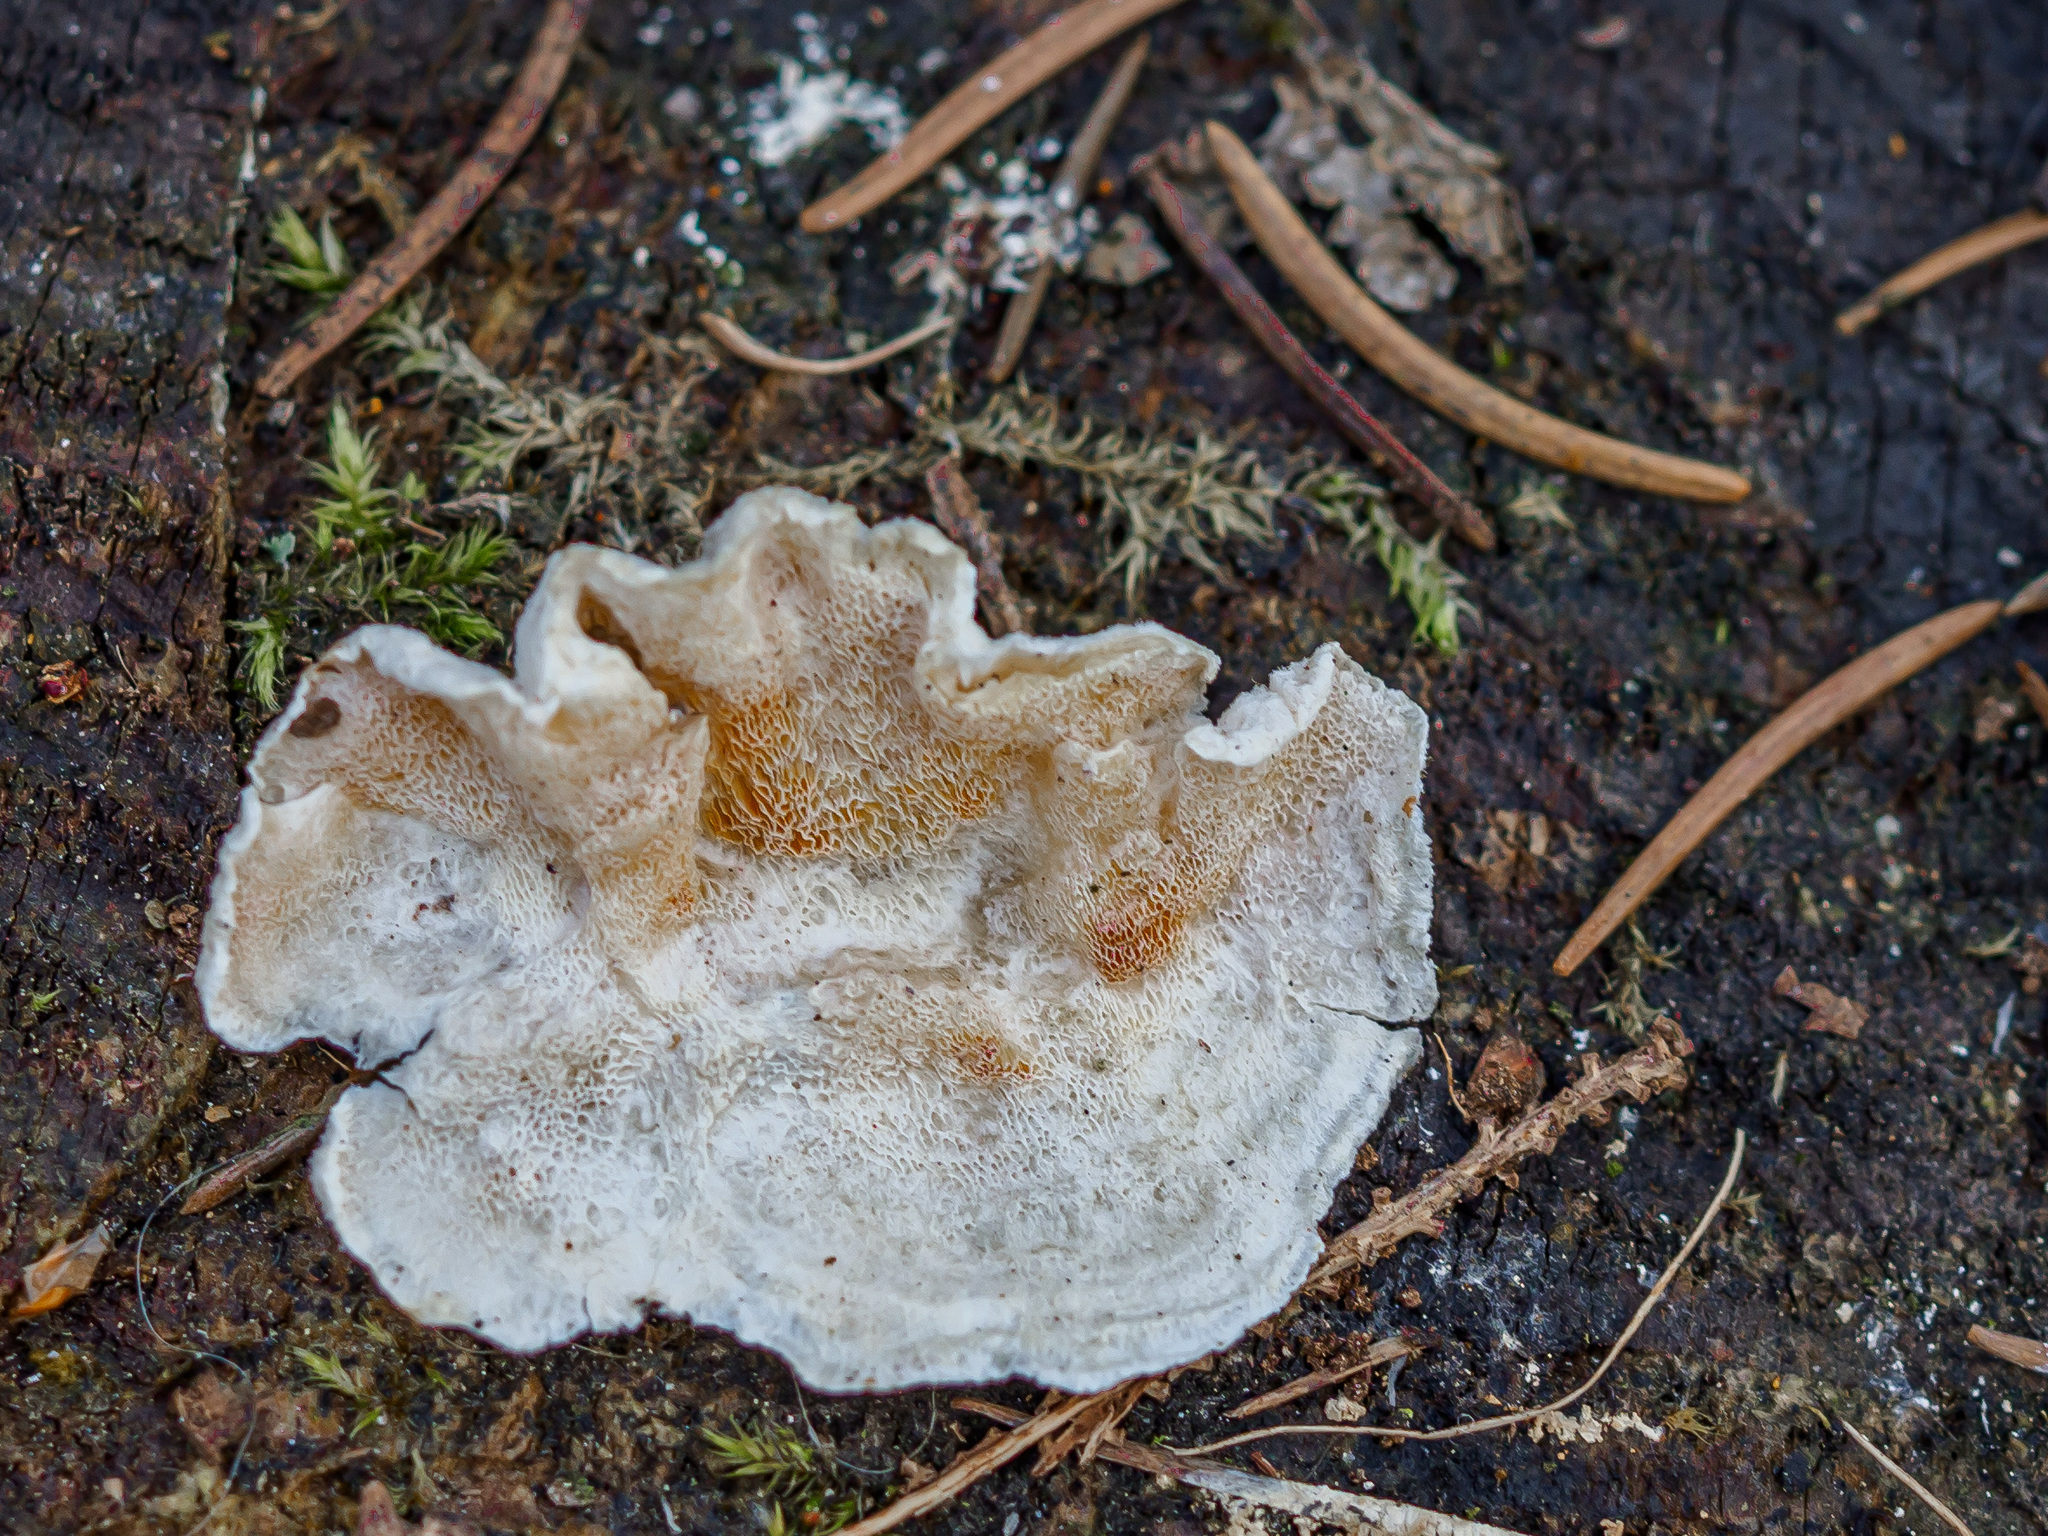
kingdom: Fungi
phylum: Basidiomycota
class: Agaricomycetes
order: Polyporales
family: Incrustoporiaceae
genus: Skeletocutis
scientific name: Skeletocutis amorpha
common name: Rusty crust
